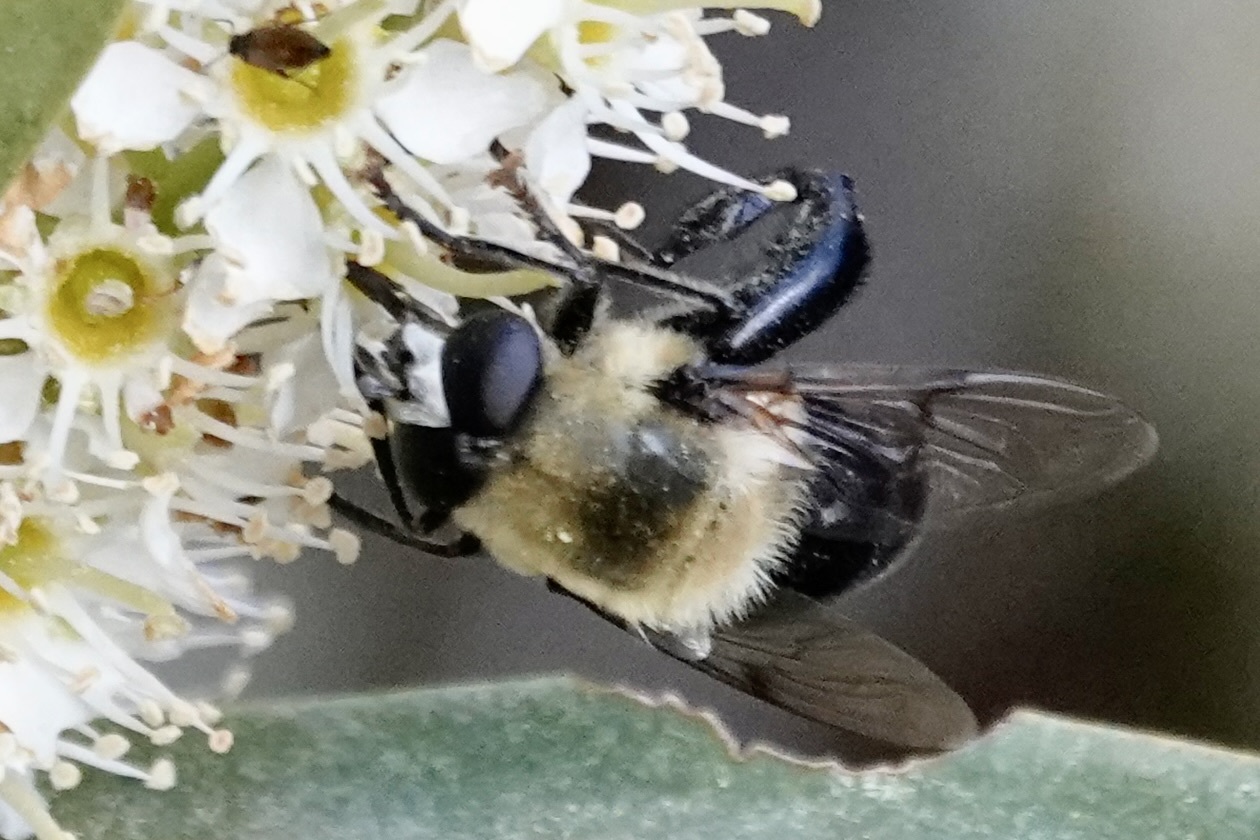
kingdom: Animalia
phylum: Arthropoda
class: Insecta
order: Diptera
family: Syrphidae
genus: Imatisma
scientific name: Imatisma bautias
